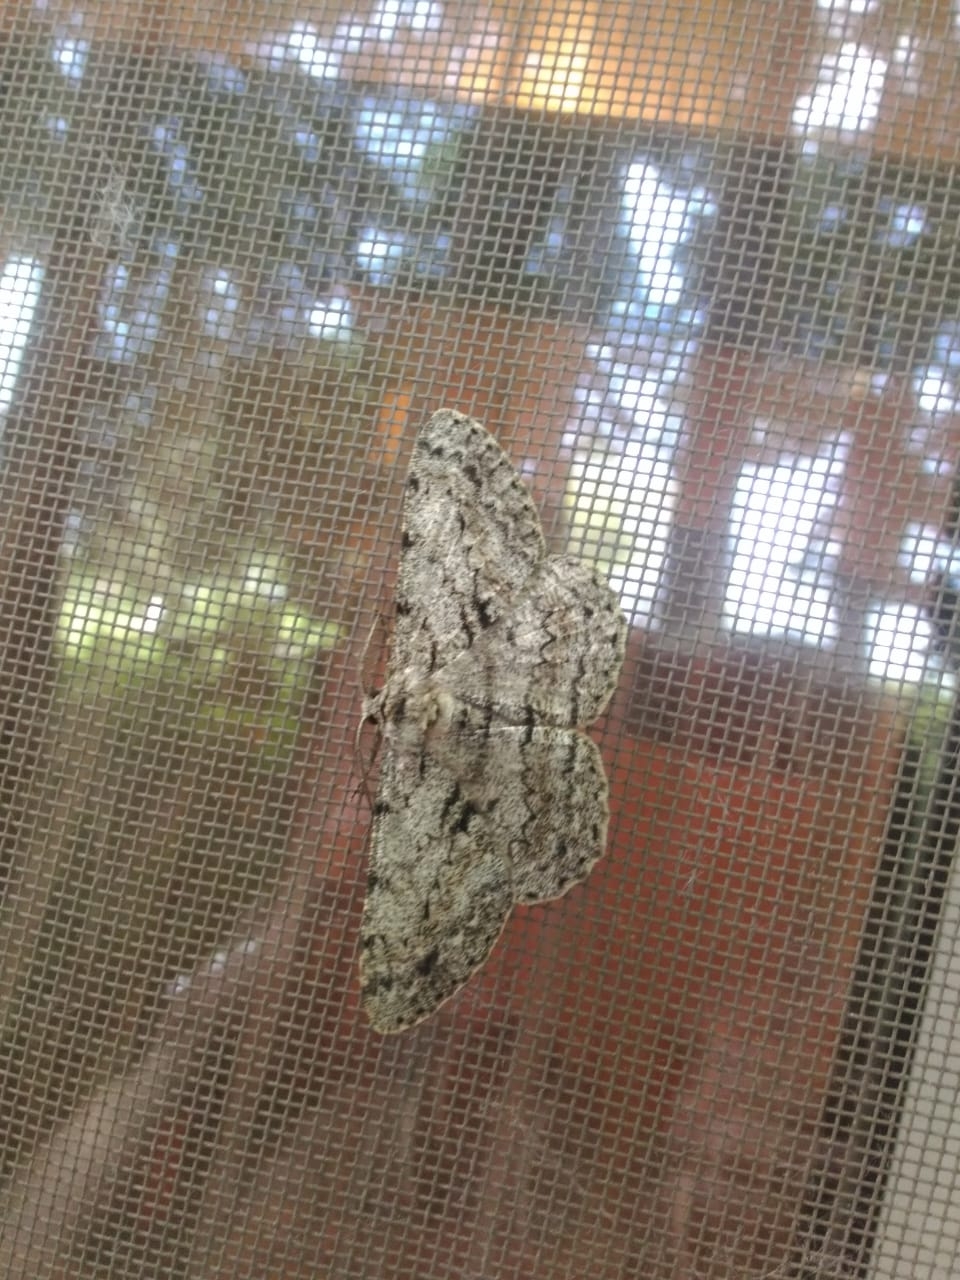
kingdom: Animalia
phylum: Arthropoda
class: Insecta
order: Lepidoptera
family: Geometridae
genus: Hypomecis
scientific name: Hypomecis roboraria
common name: Great oak beauty
